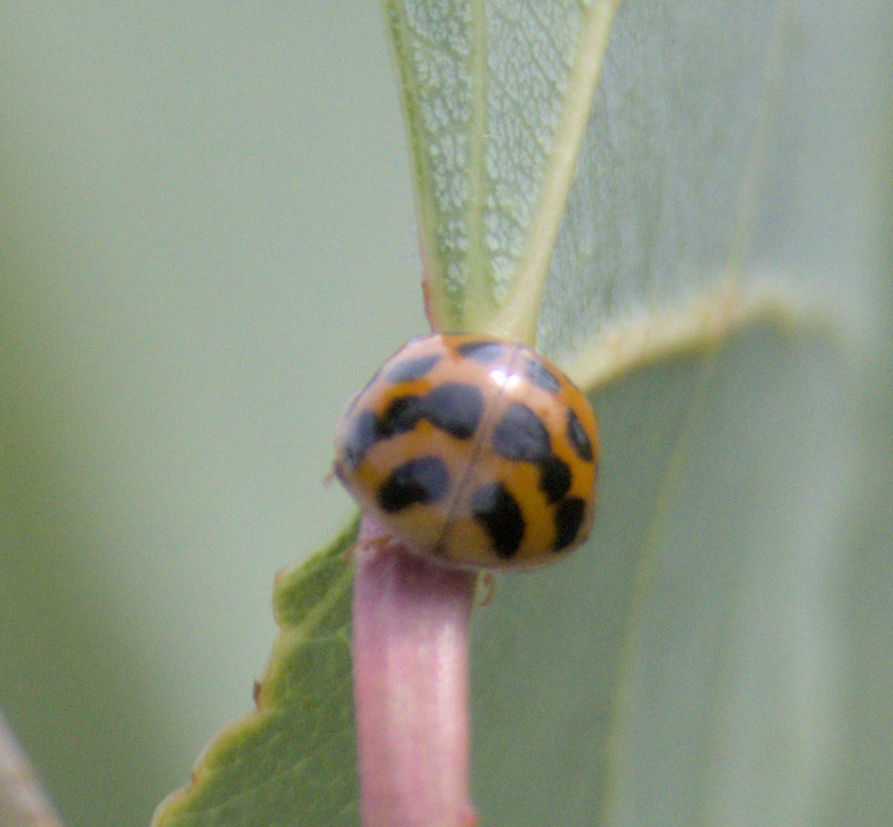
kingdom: Animalia
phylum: Arthropoda
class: Insecta
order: Coleoptera
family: Coccinellidae
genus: Harmonia
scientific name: Harmonia axyridis
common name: Harlequin ladybird
